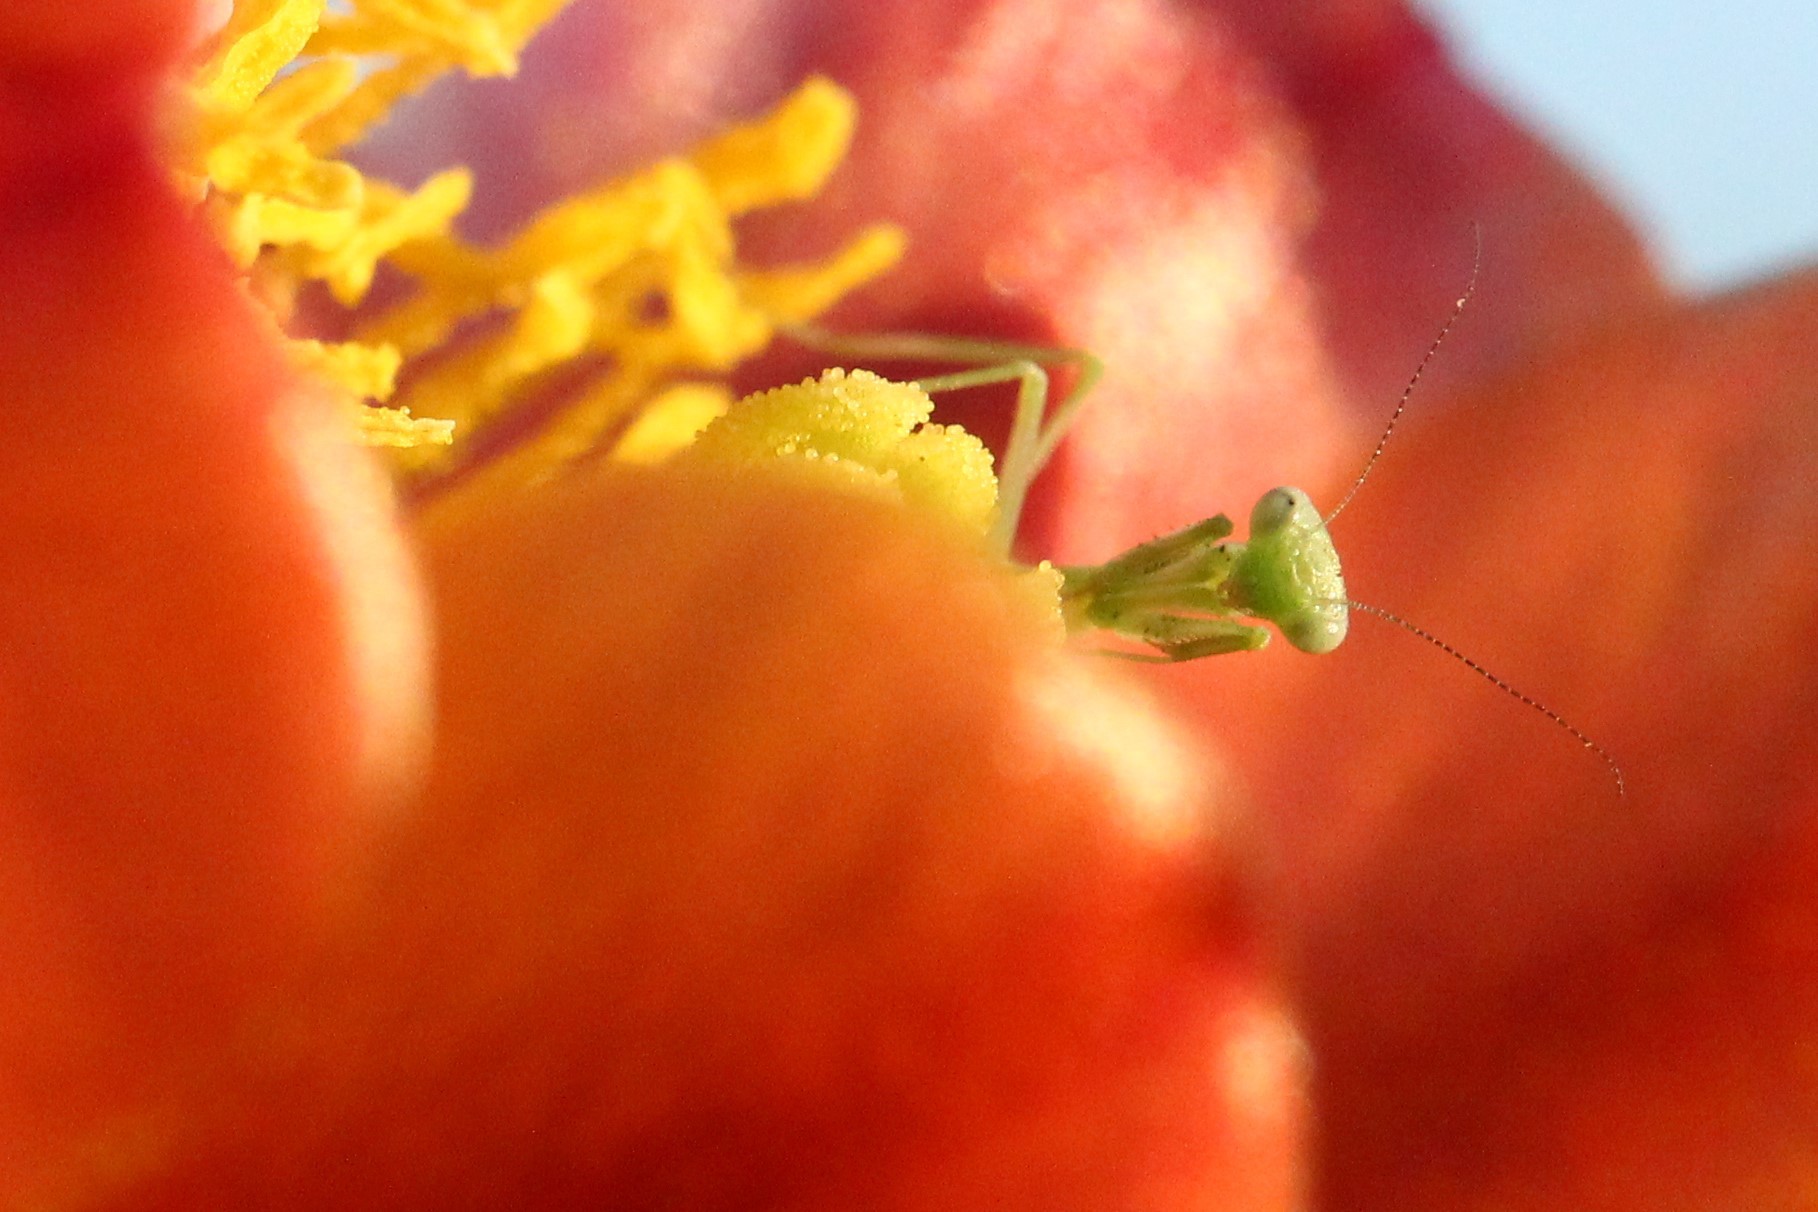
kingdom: Animalia
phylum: Arthropoda
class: Insecta
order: Mantodea
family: Mantidae
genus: Stagmomantis
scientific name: Stagmomantis limbata
